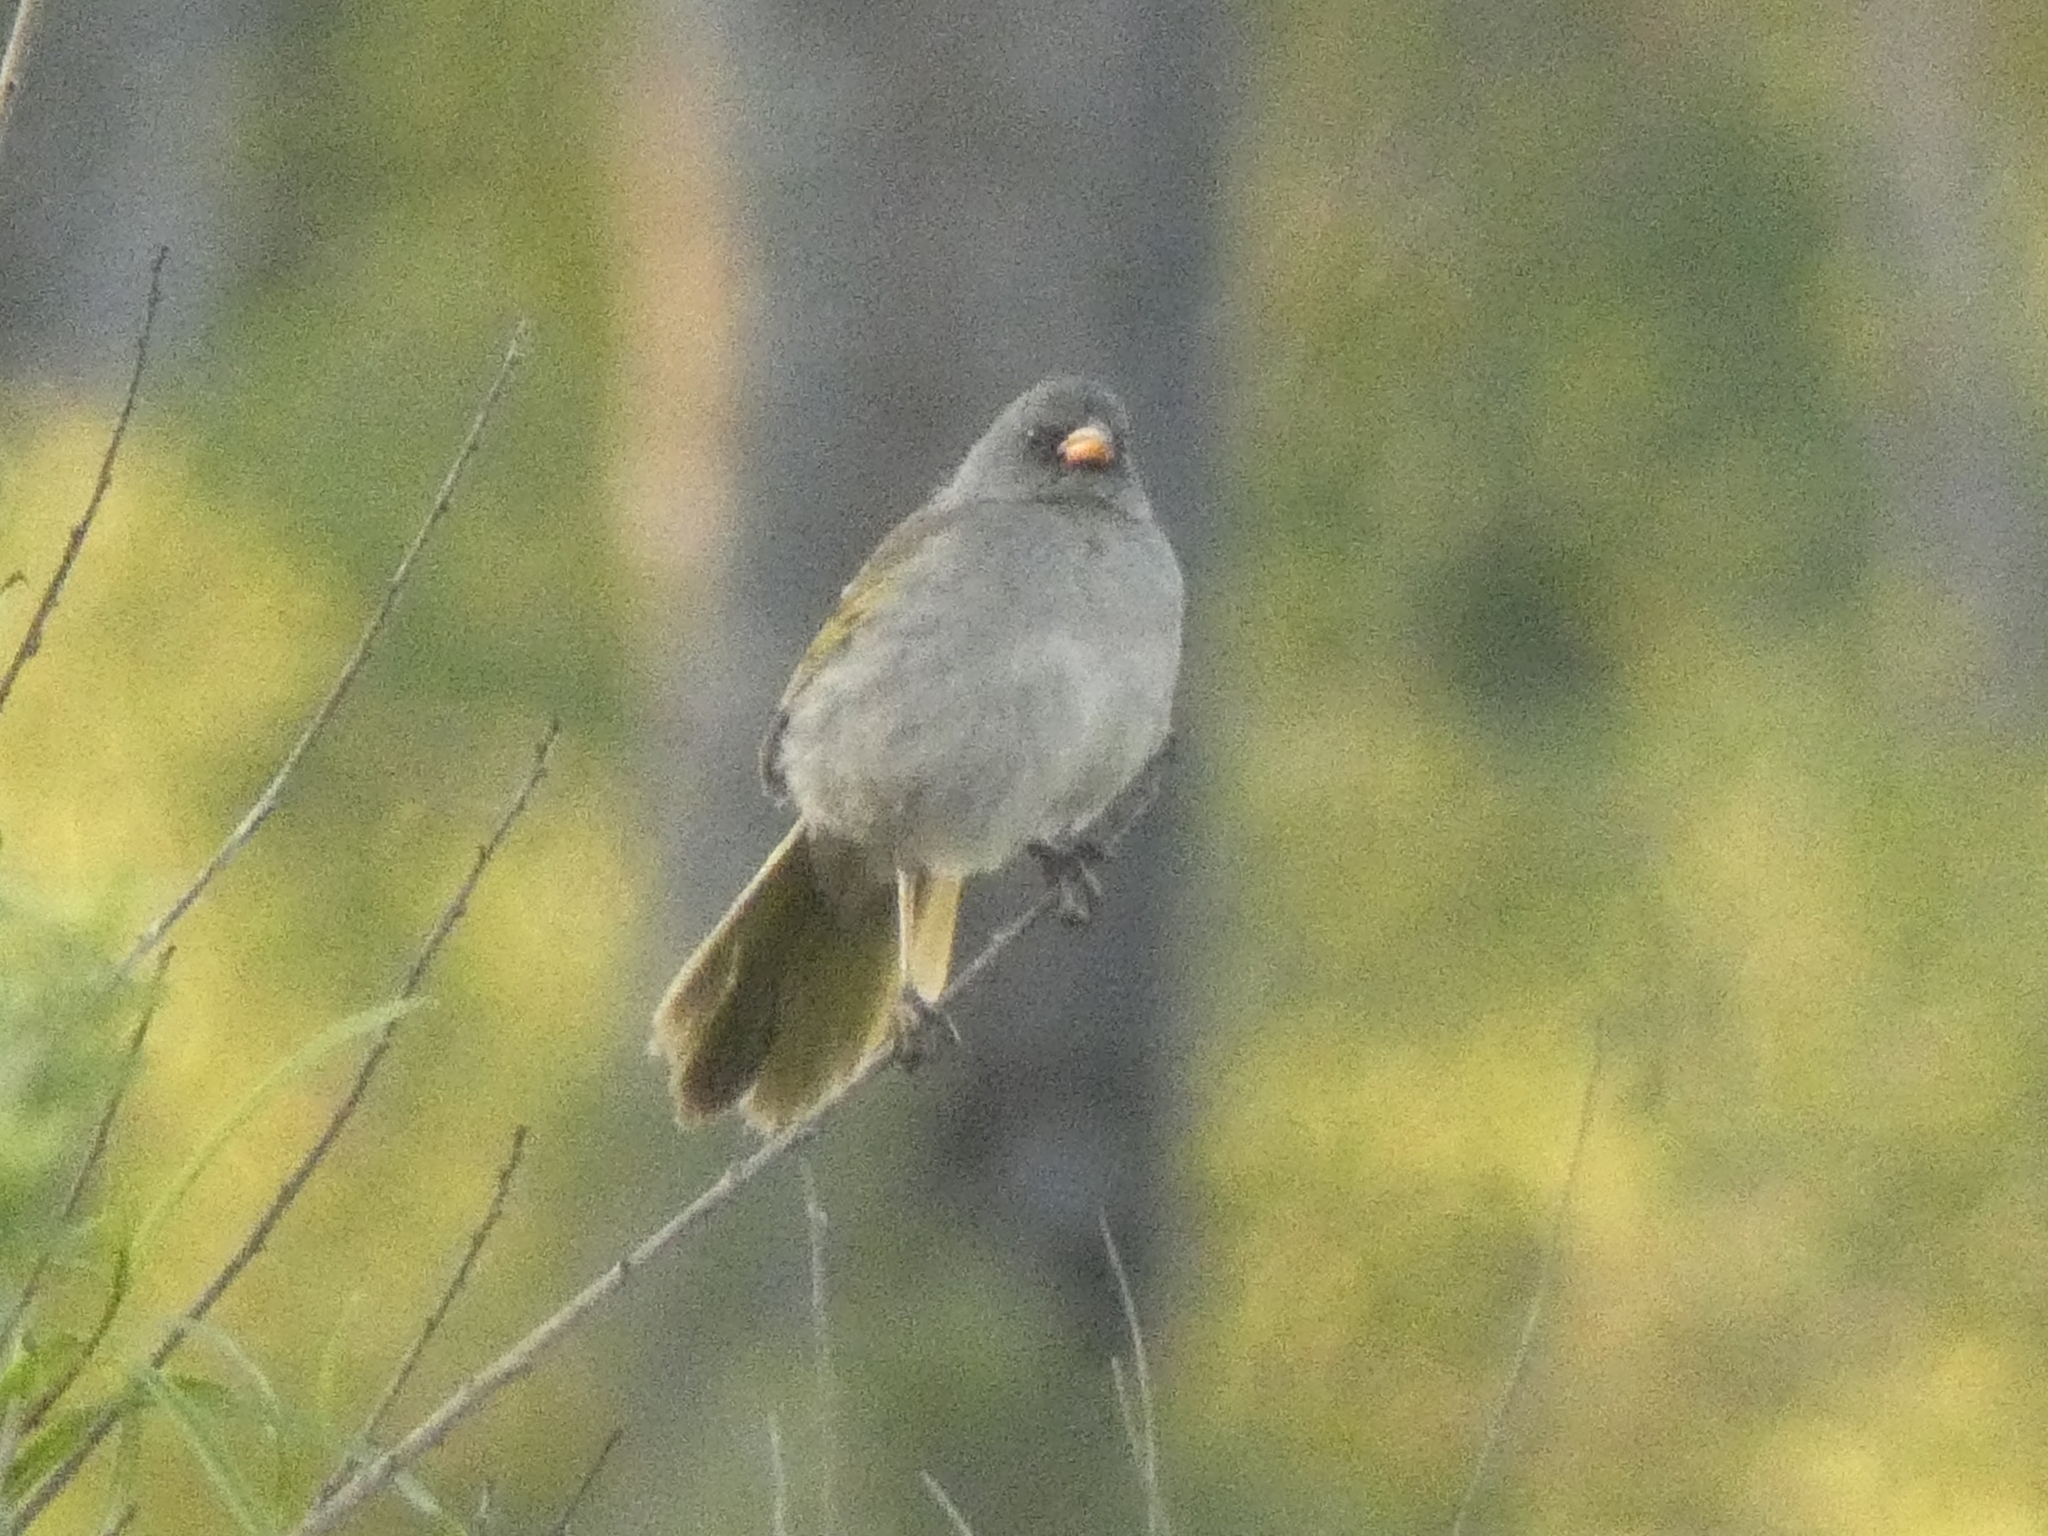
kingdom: Animalia
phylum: Chordata
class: Aves
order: Passeriformes
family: Thraupidae
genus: Embernagra
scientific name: Embernagra platensis
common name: Pampa finch
